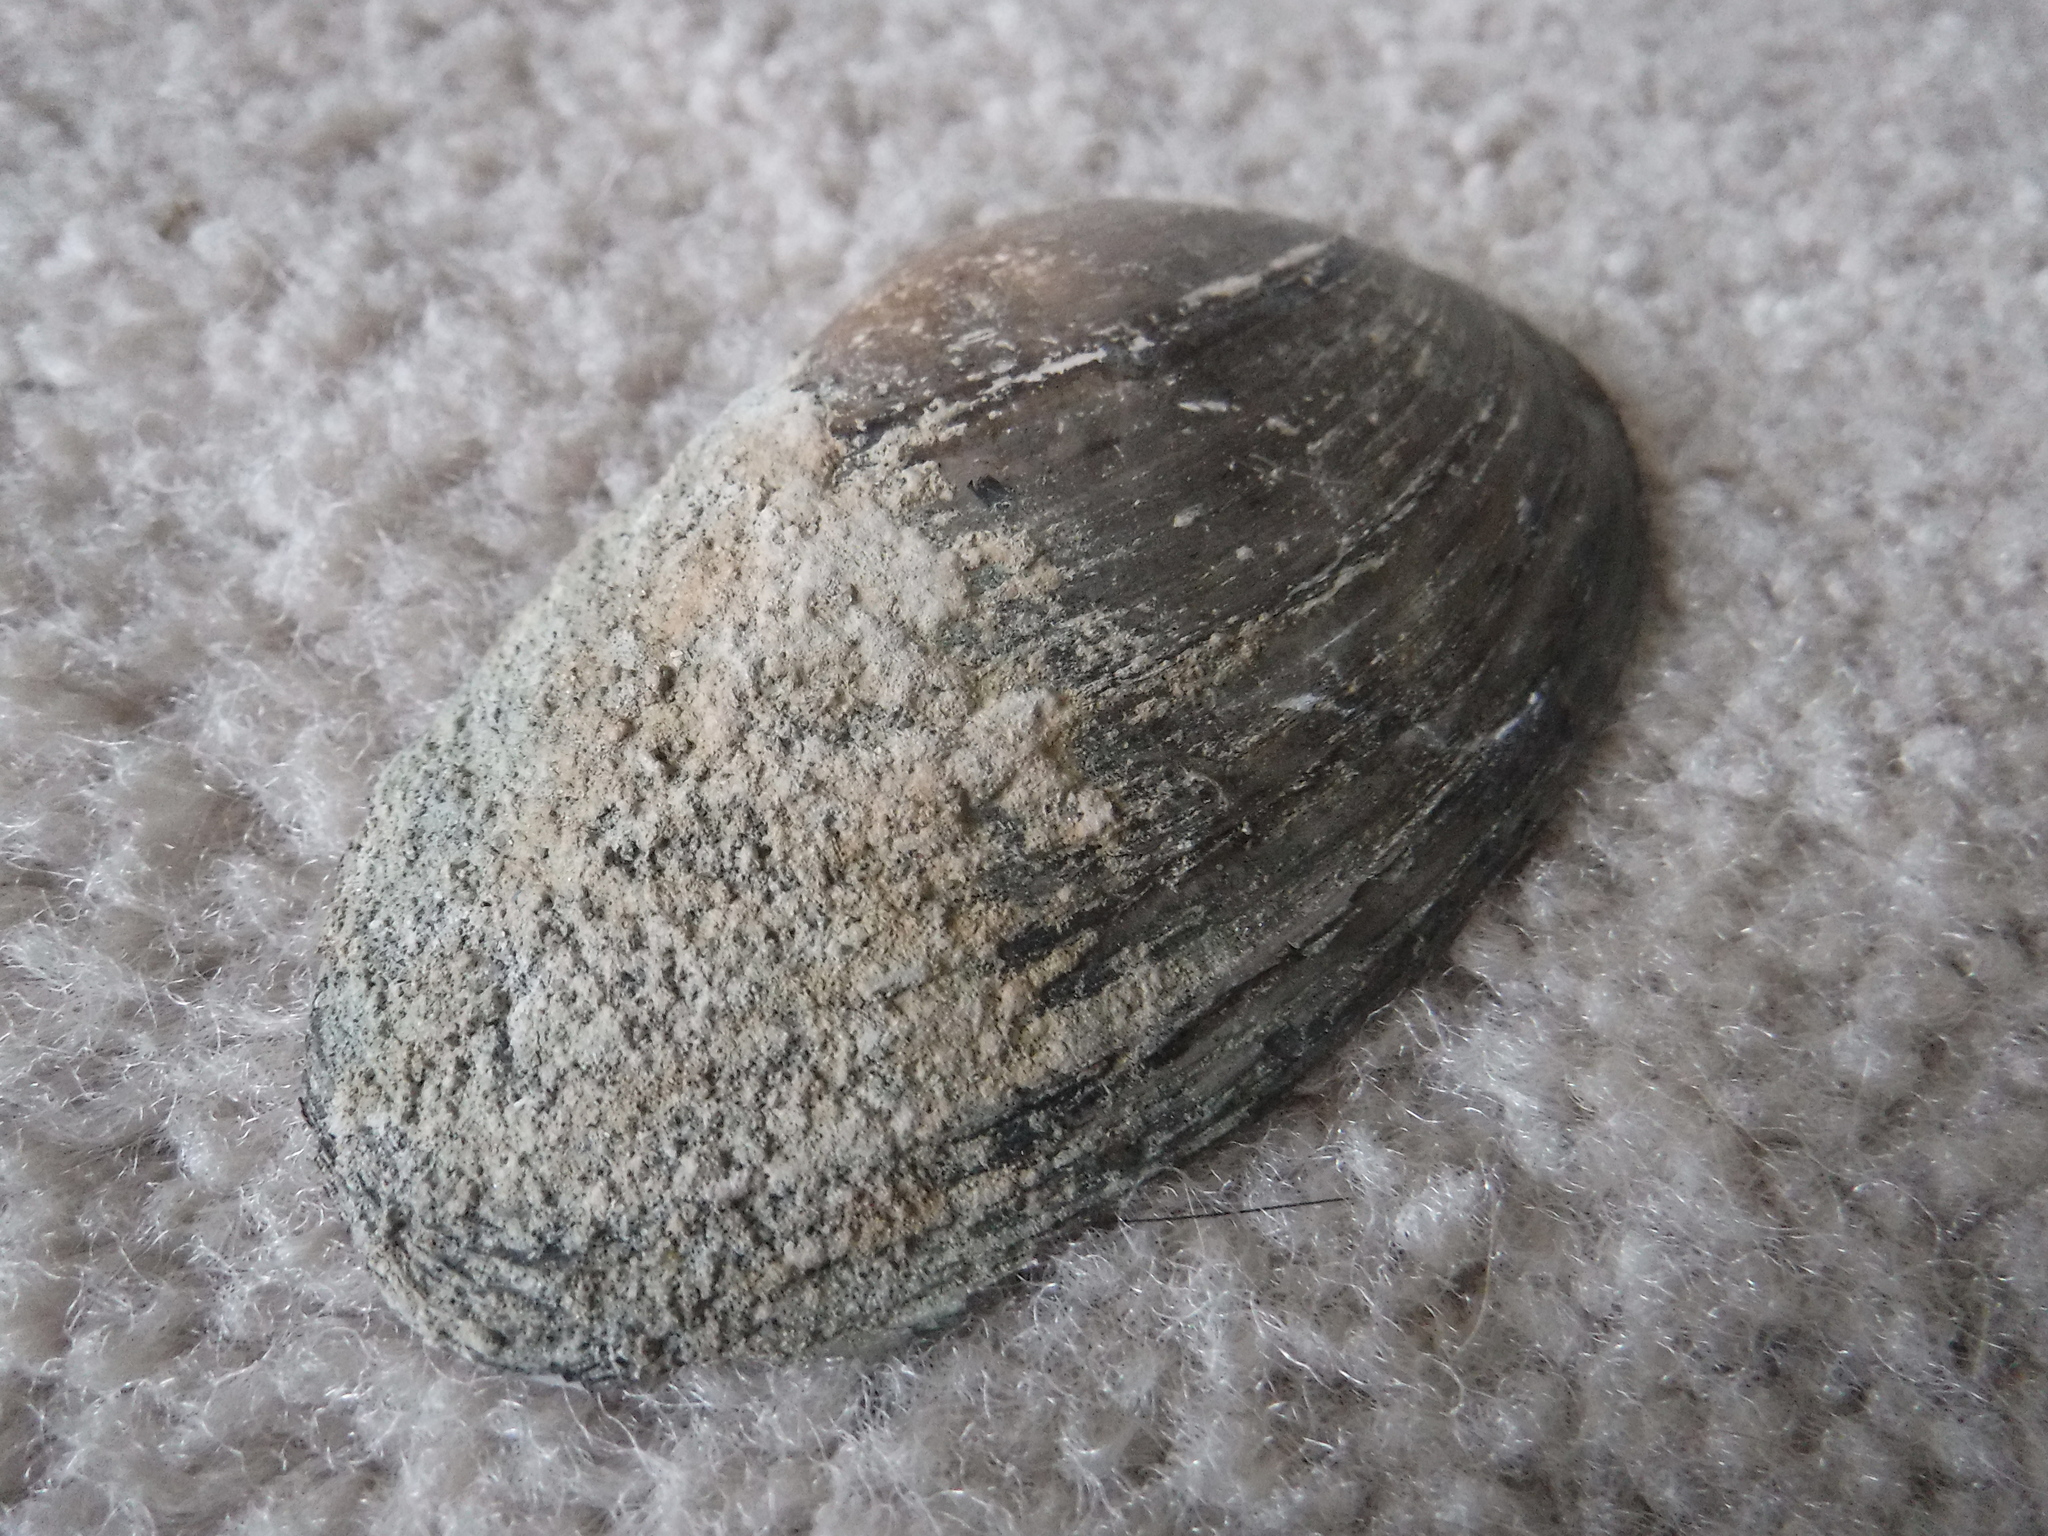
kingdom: Animalia
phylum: Mollusca
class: Bivalvia
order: Unionida
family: Unionidae
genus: Strophitus
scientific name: Strophitus undulatus
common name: Creeper
